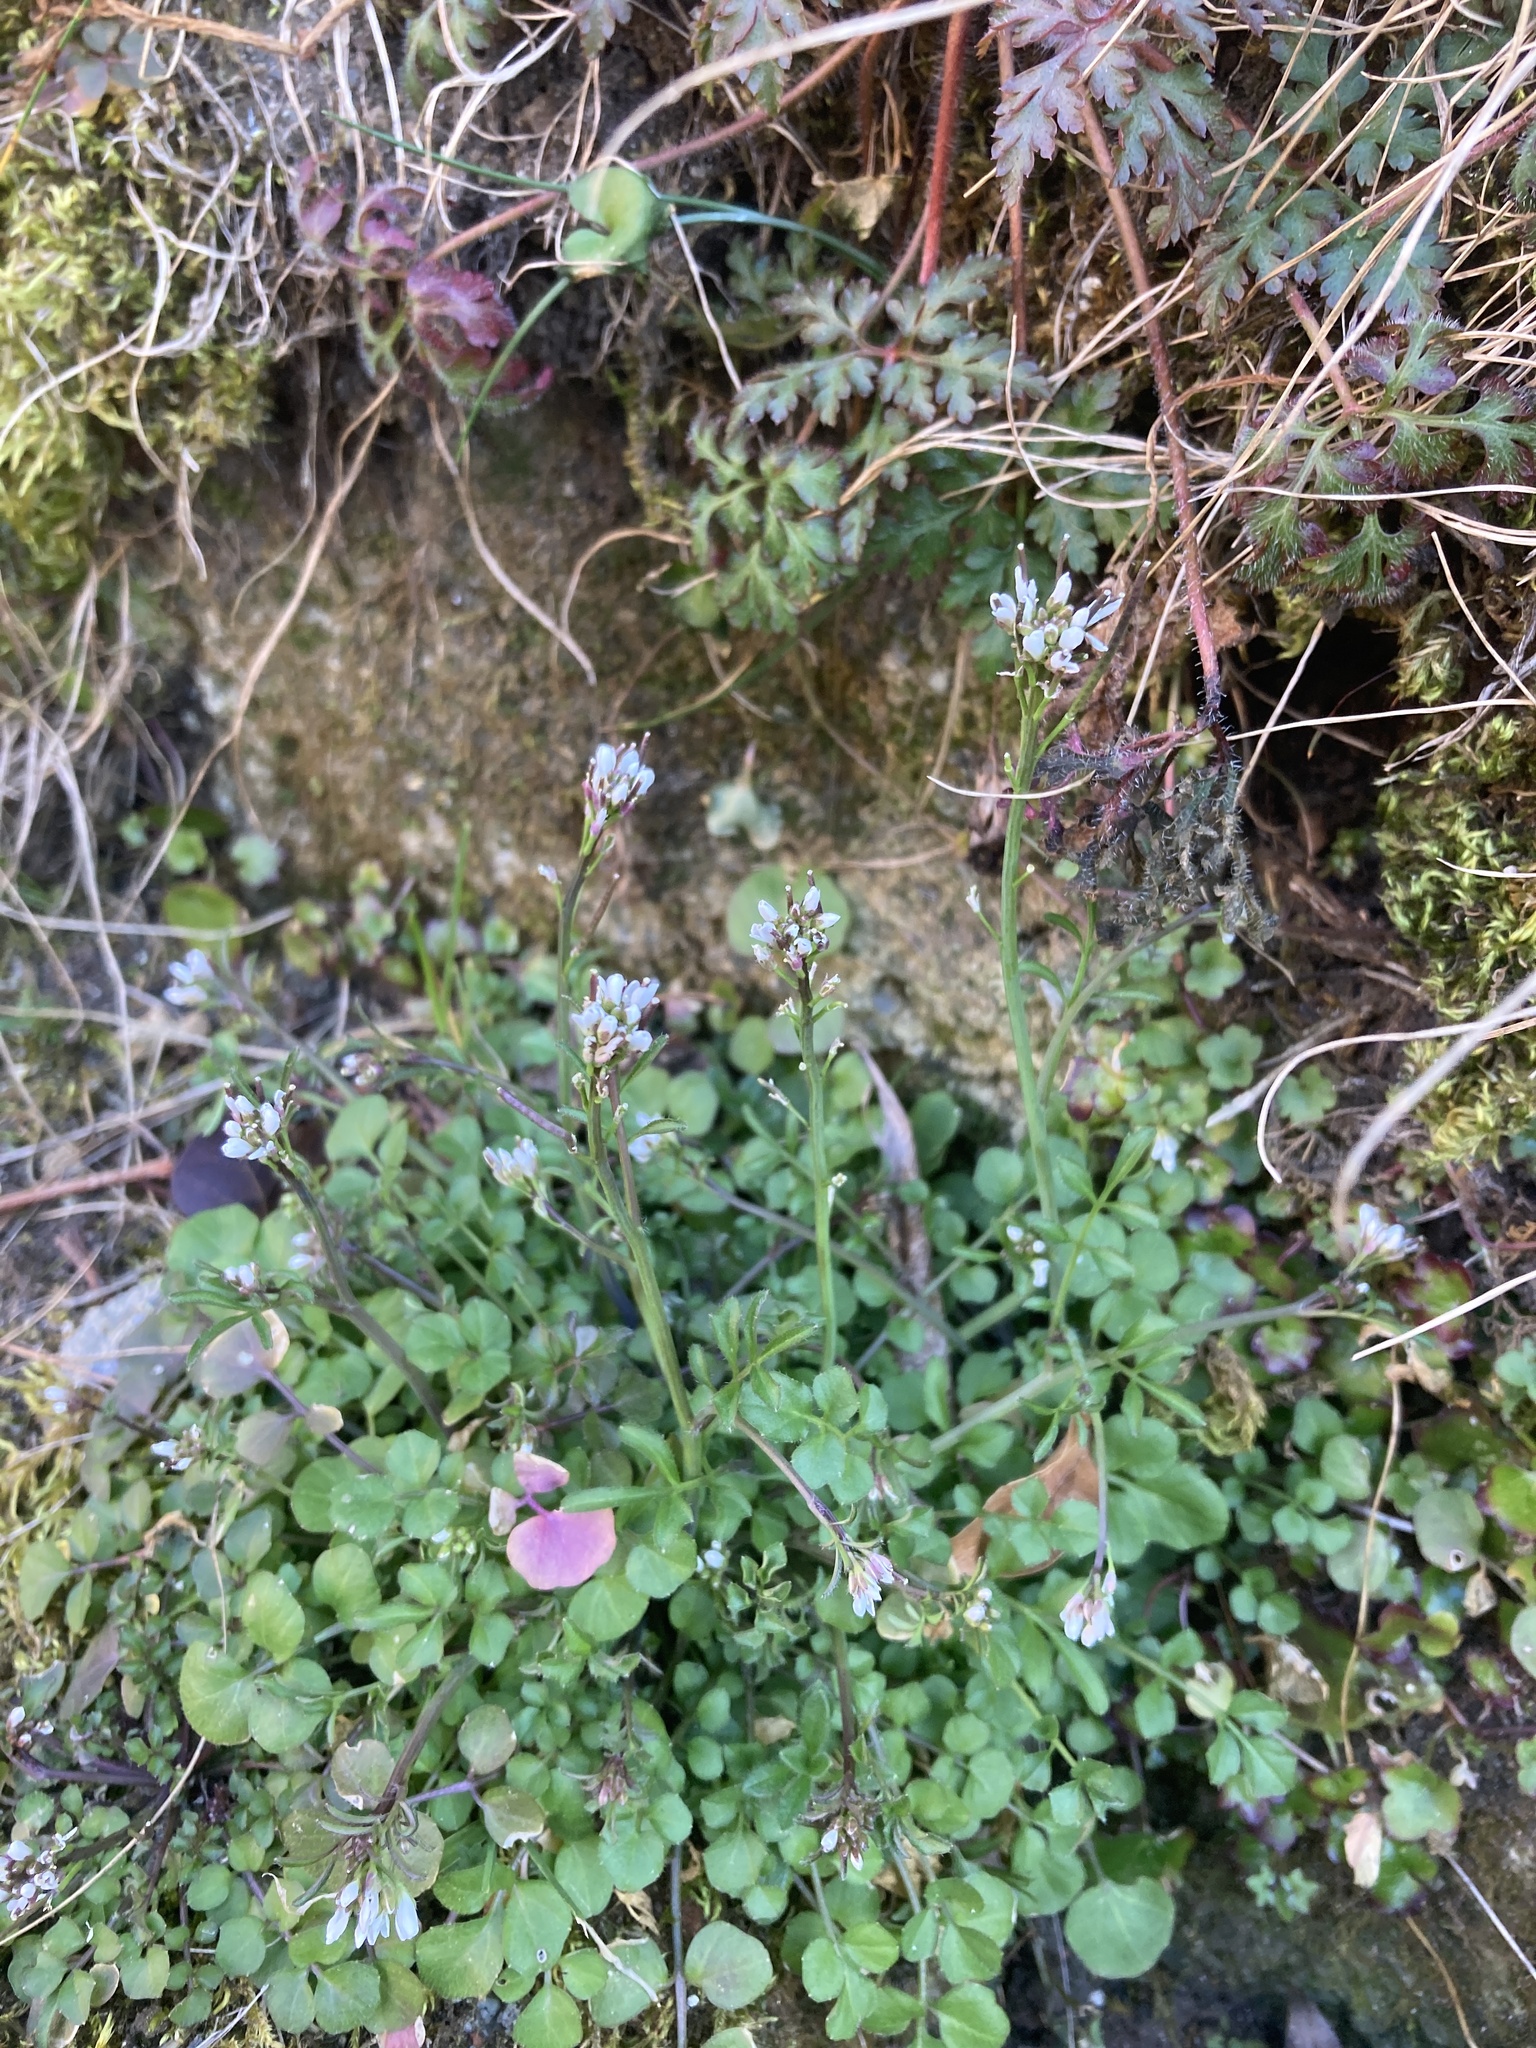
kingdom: Plantae
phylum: Tracheophyta
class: Magnoliopsida
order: Brassicales
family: Brassicaceae
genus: Cardamine
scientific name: Cardamine hirsuta
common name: Hairy bittercress
